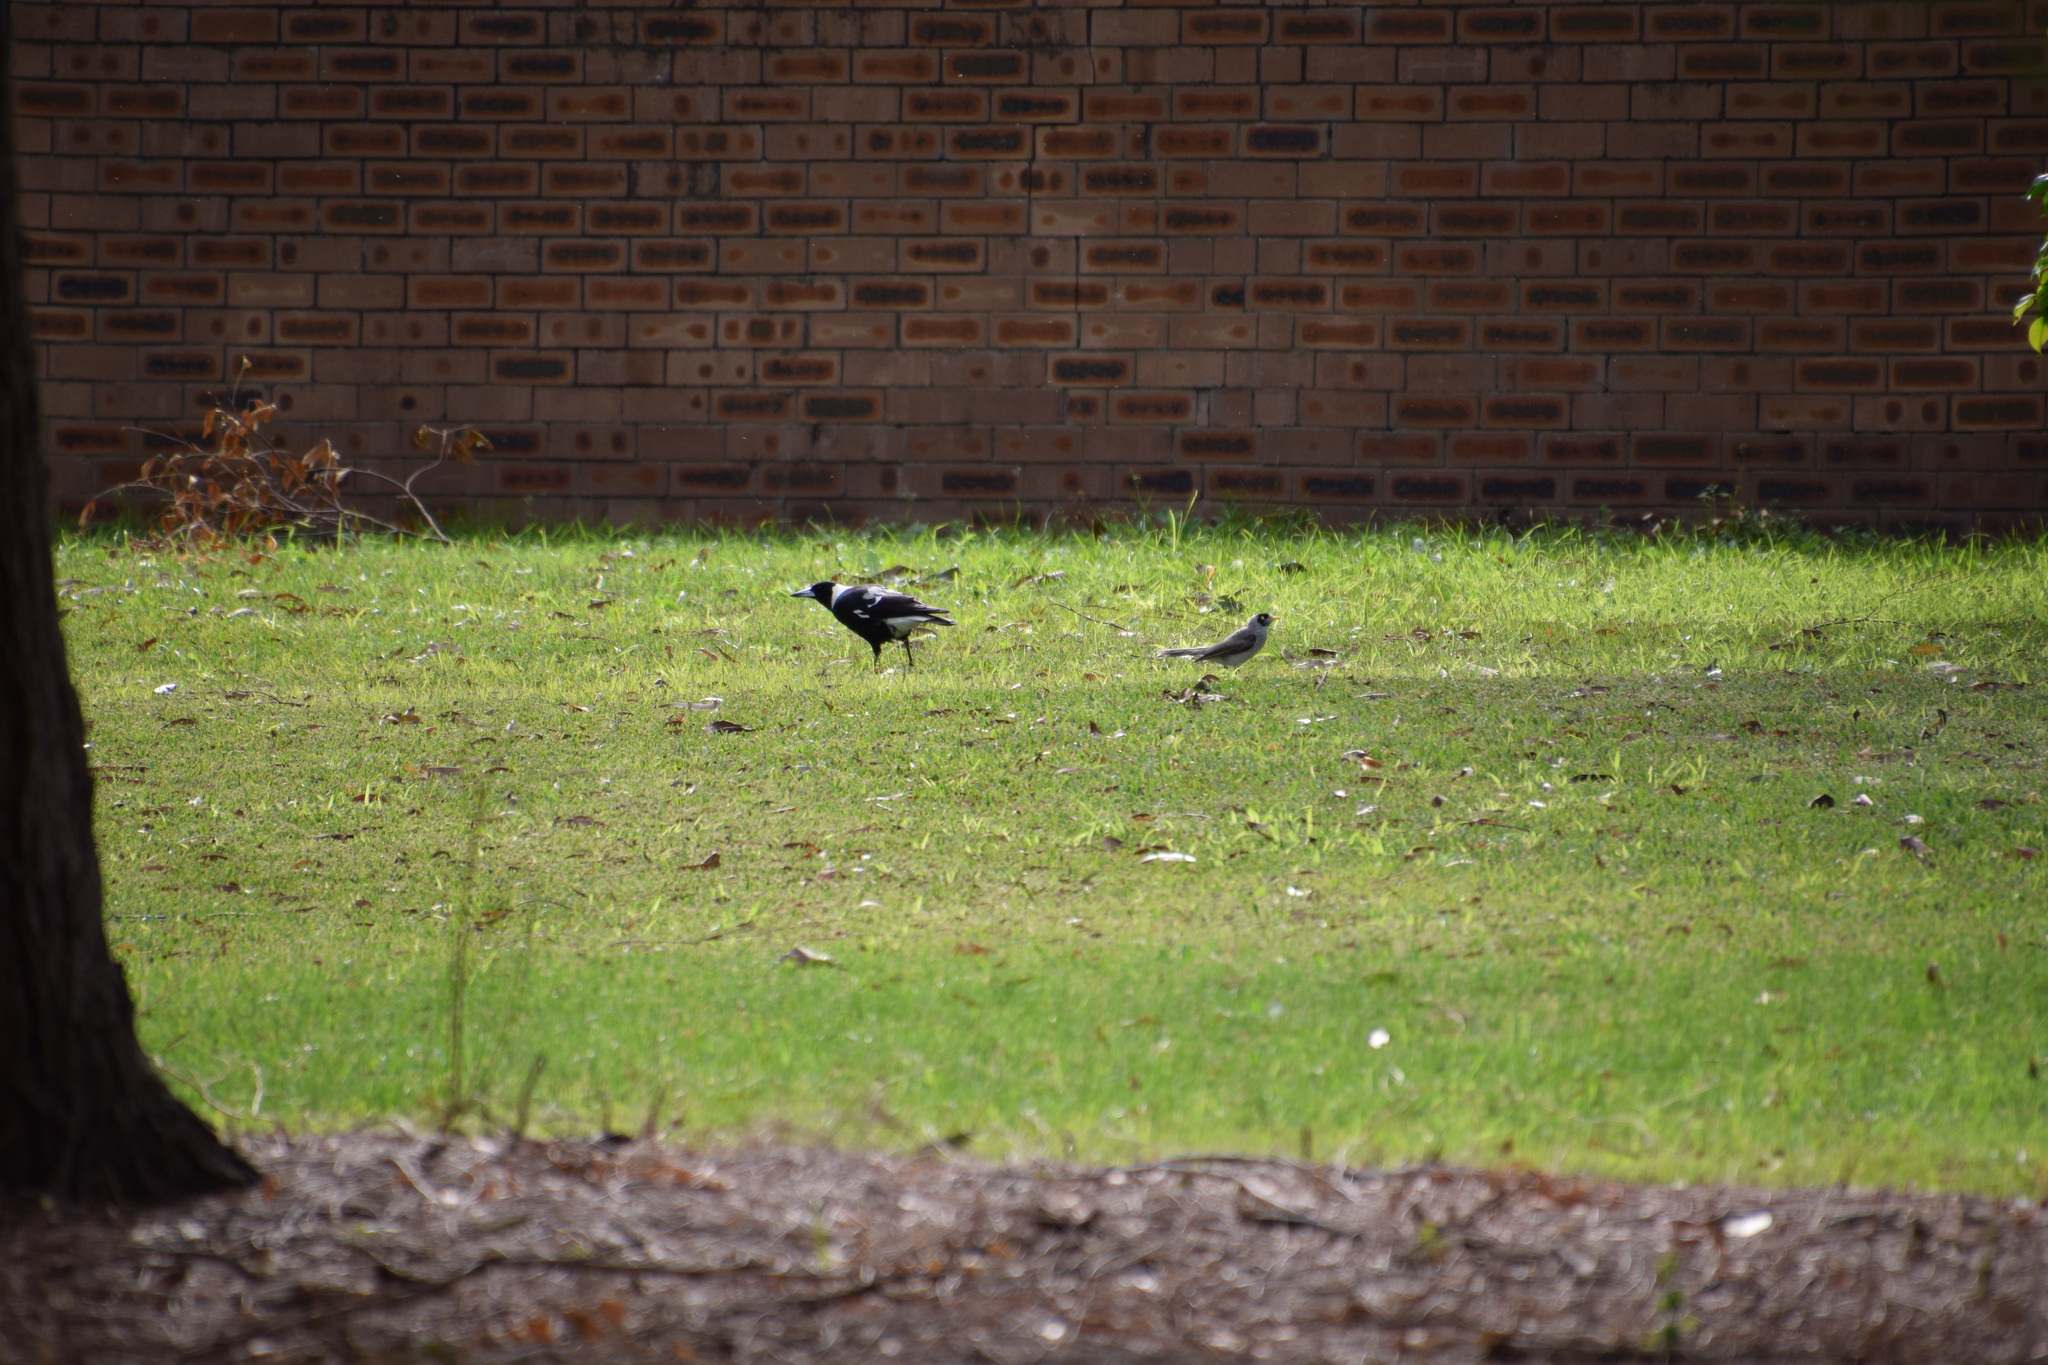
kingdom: Animalia
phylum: Chordata
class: Aves
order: Passeriformes
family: Cracticidae
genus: Gymnorhina
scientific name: Gymnorhina tibicen
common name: Australian magpie
